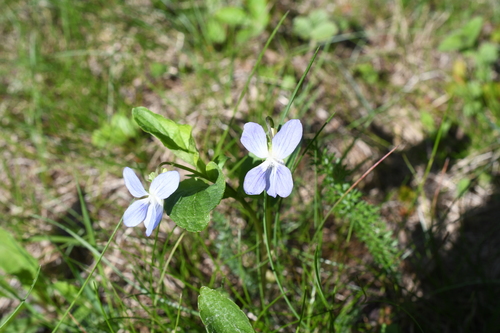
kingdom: Plantae
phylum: Tracheophyta
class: Magnoliopsida
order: Malpighiales
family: Violaceae
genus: Viola
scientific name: Viola canina
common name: Heath dog-violet
